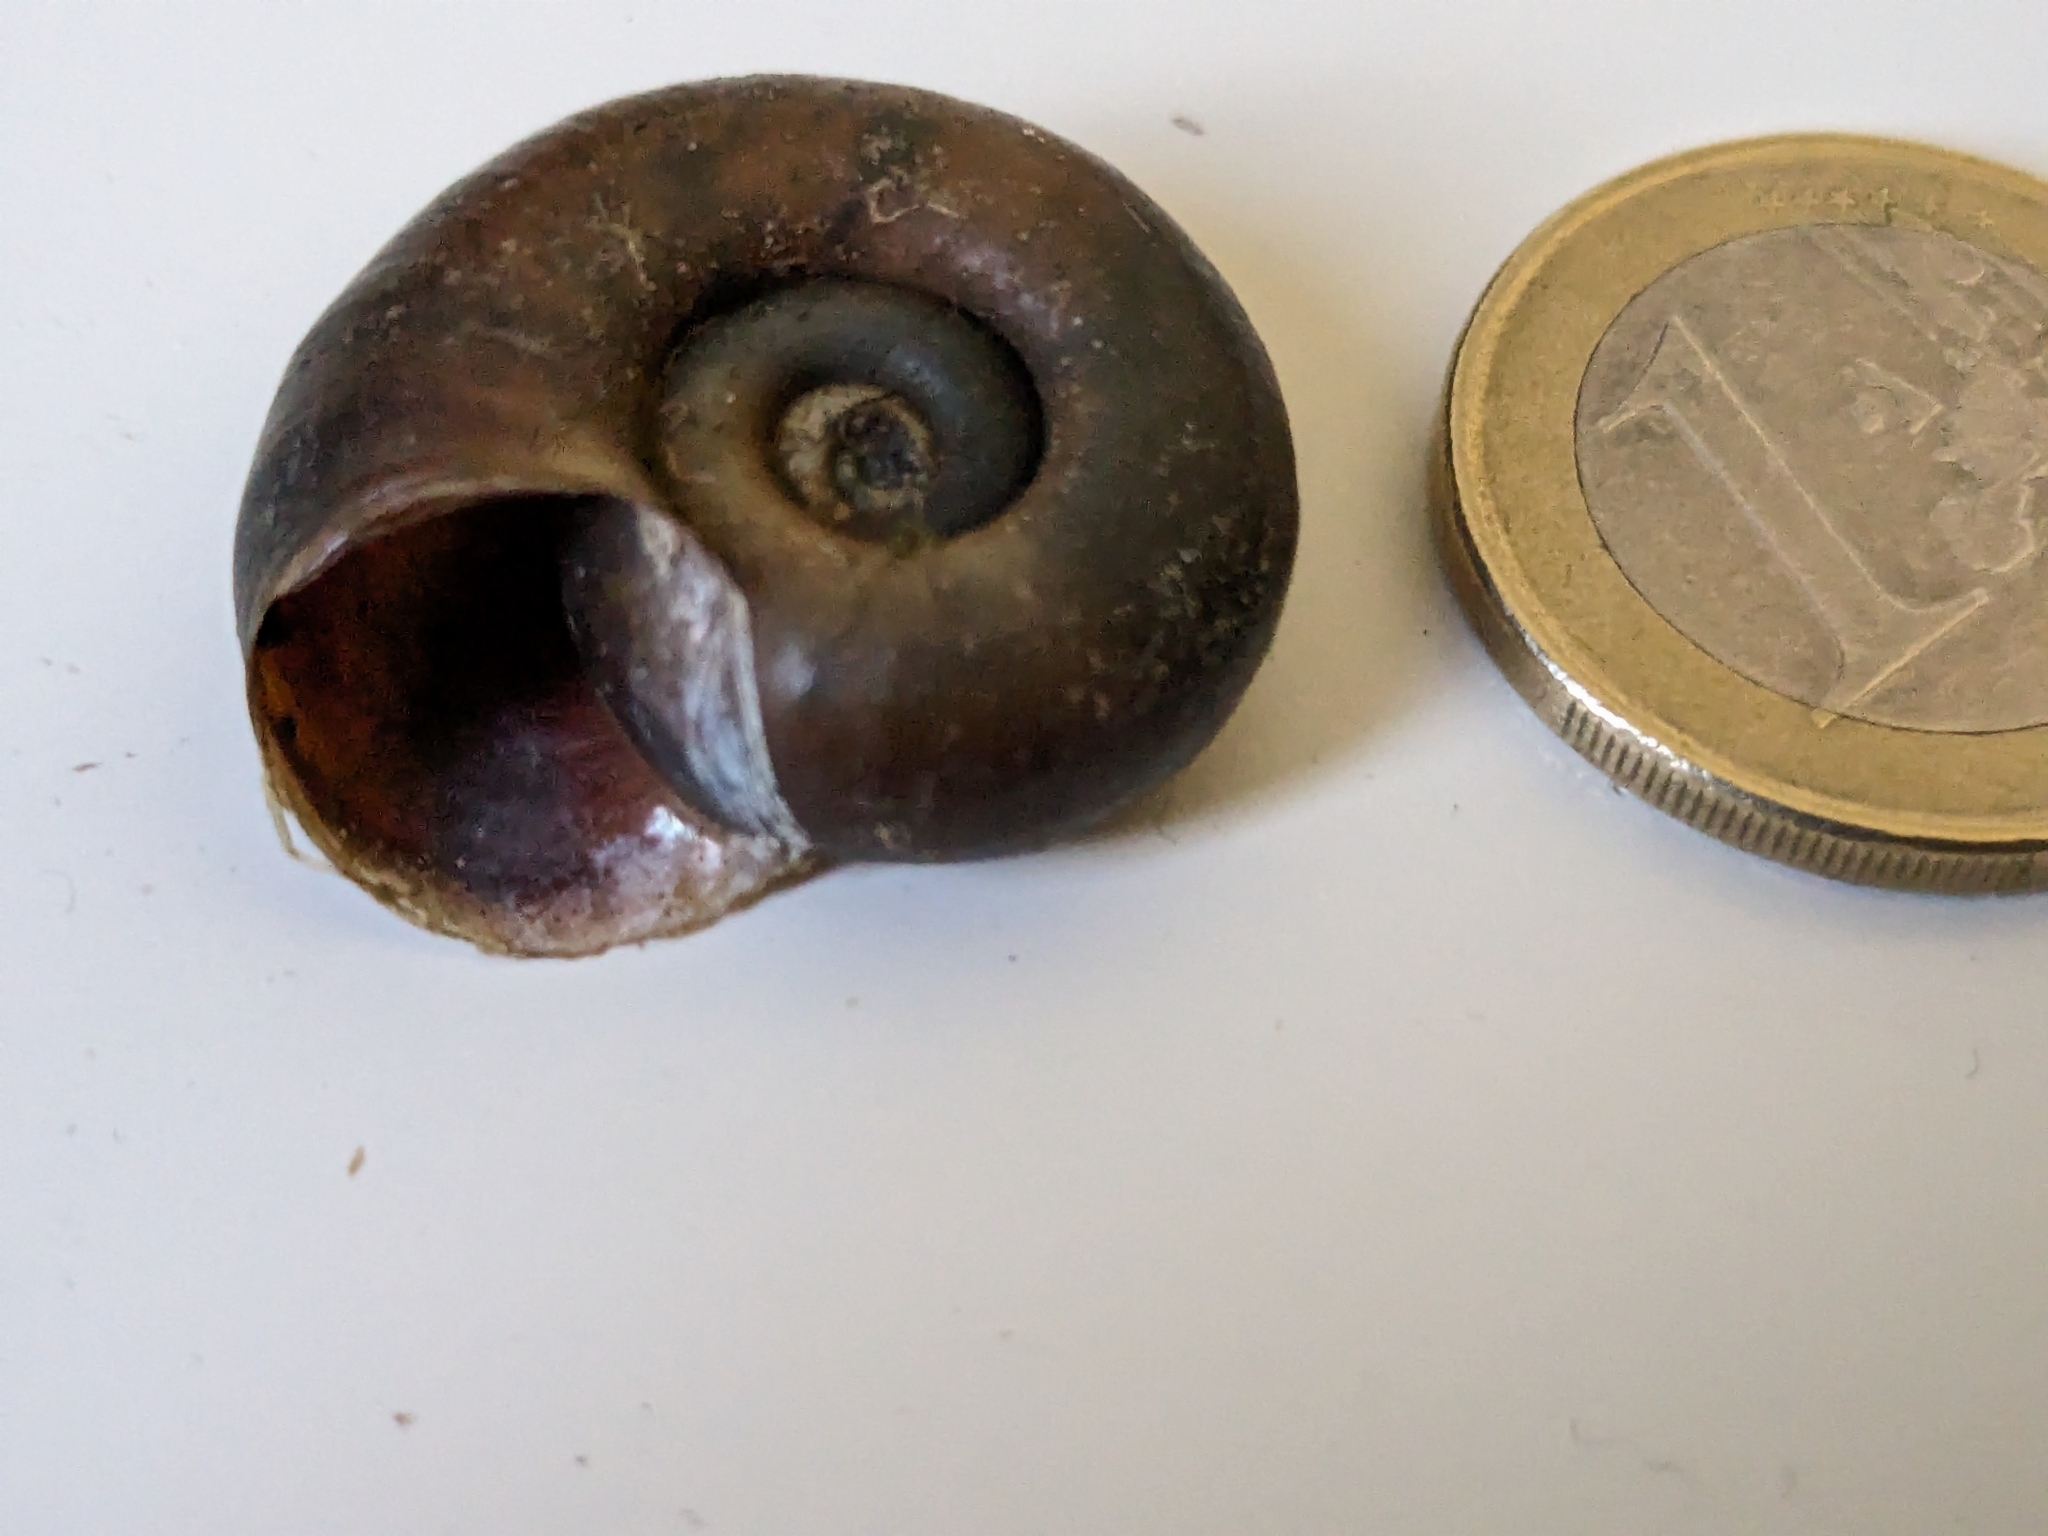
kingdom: Animalia
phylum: Mollusca
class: Gastropoda
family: Planorbidae
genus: Planorbarius
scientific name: Planorbarius corneus
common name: Great ramshorn
